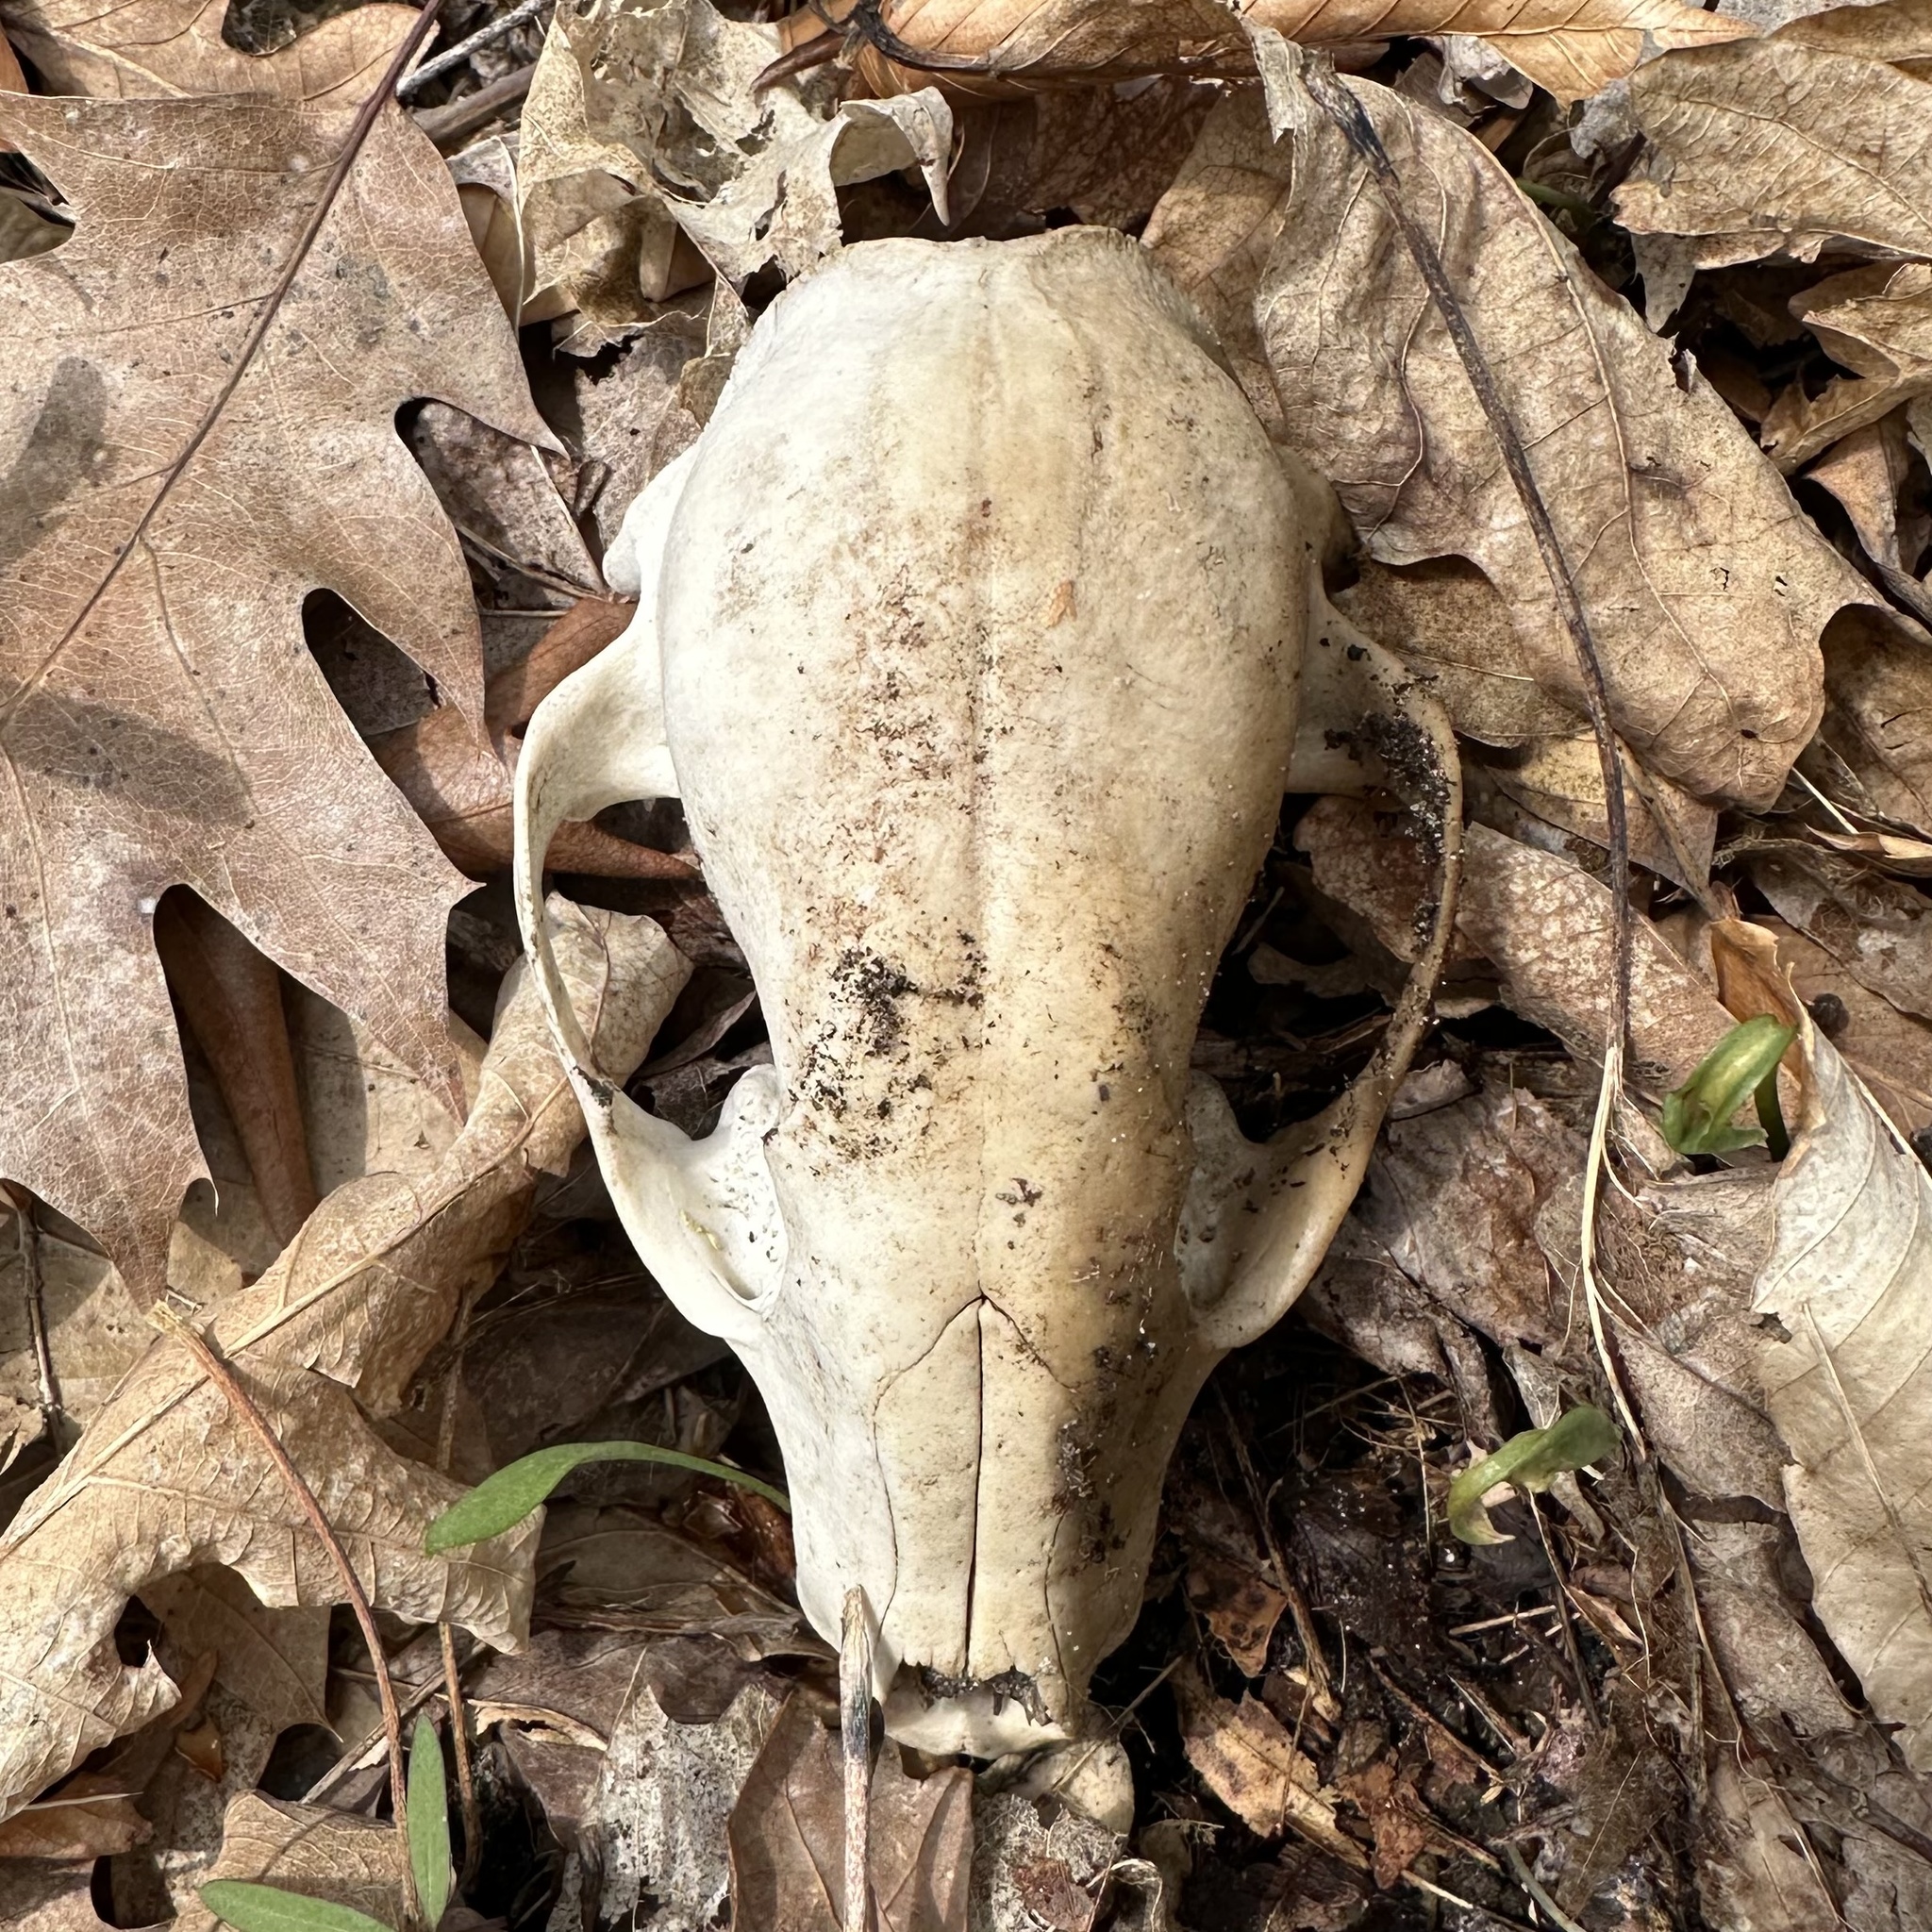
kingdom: Animalia
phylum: Chordata
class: Mammalia
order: Carnivora
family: Procyonidae
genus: Procyon
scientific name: Procyon lotor
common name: Raccoon
